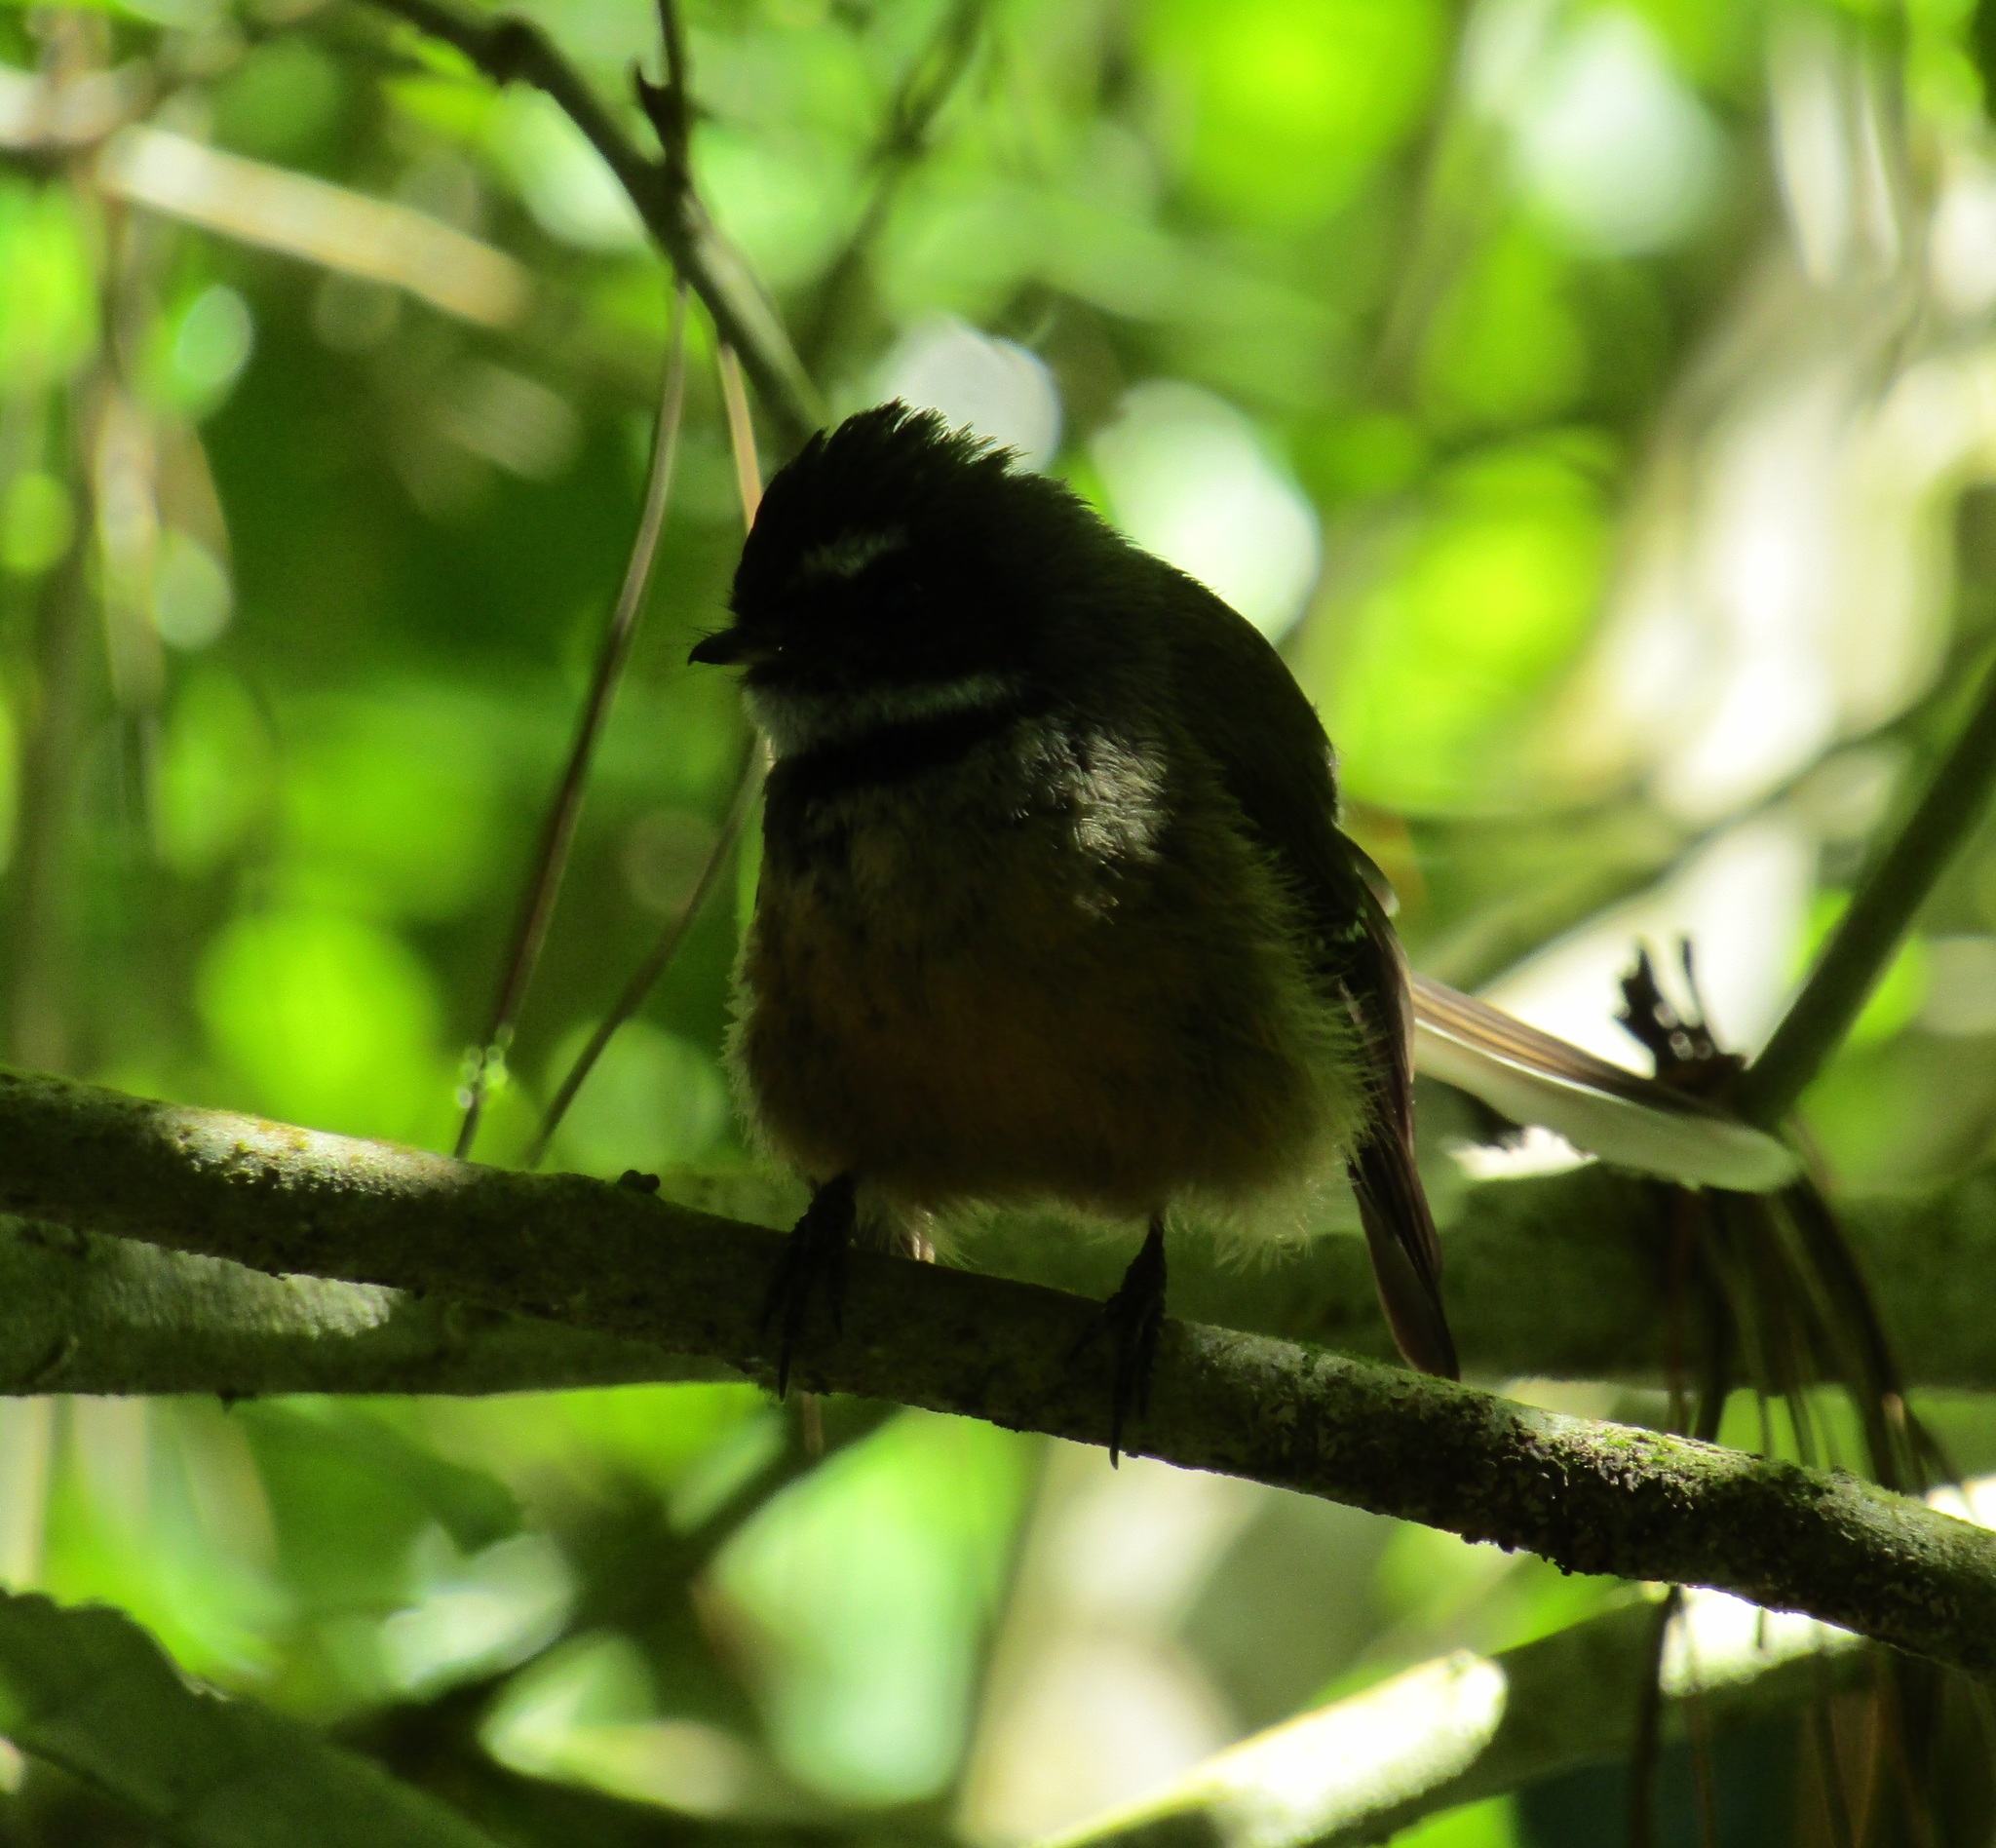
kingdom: Animalia
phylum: Chordata
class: Aves
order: Passeriformes
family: Rhipiduridae
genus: Rhipidura
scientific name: Rhipidura fuliginosa
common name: New zealand fantail
